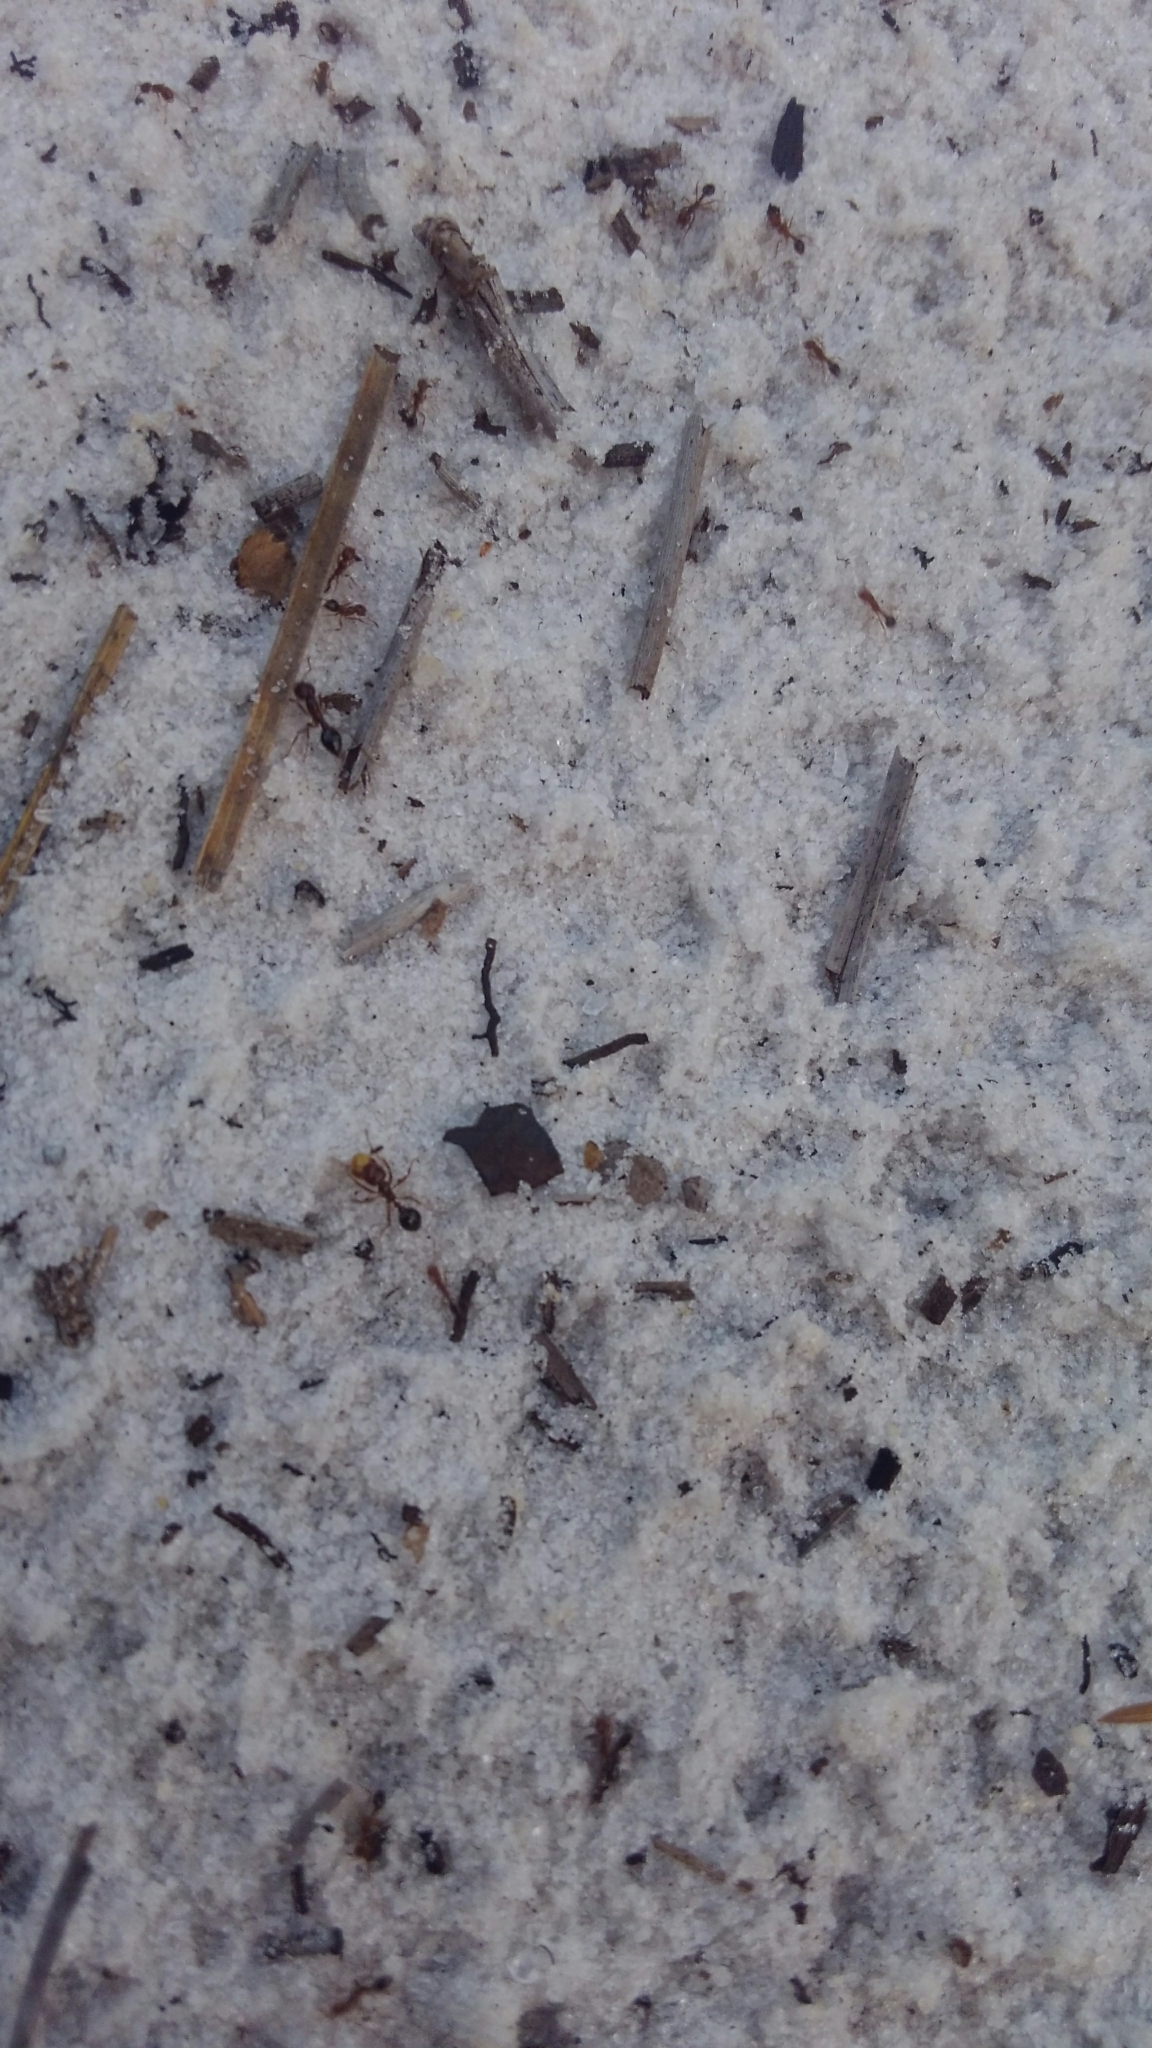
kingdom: Animalia
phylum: Arthropoda
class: Insecta
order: Hymenoptera
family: Formicidae
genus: Solenopsis
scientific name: Solenopsis invicta
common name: Red imported fire ant
